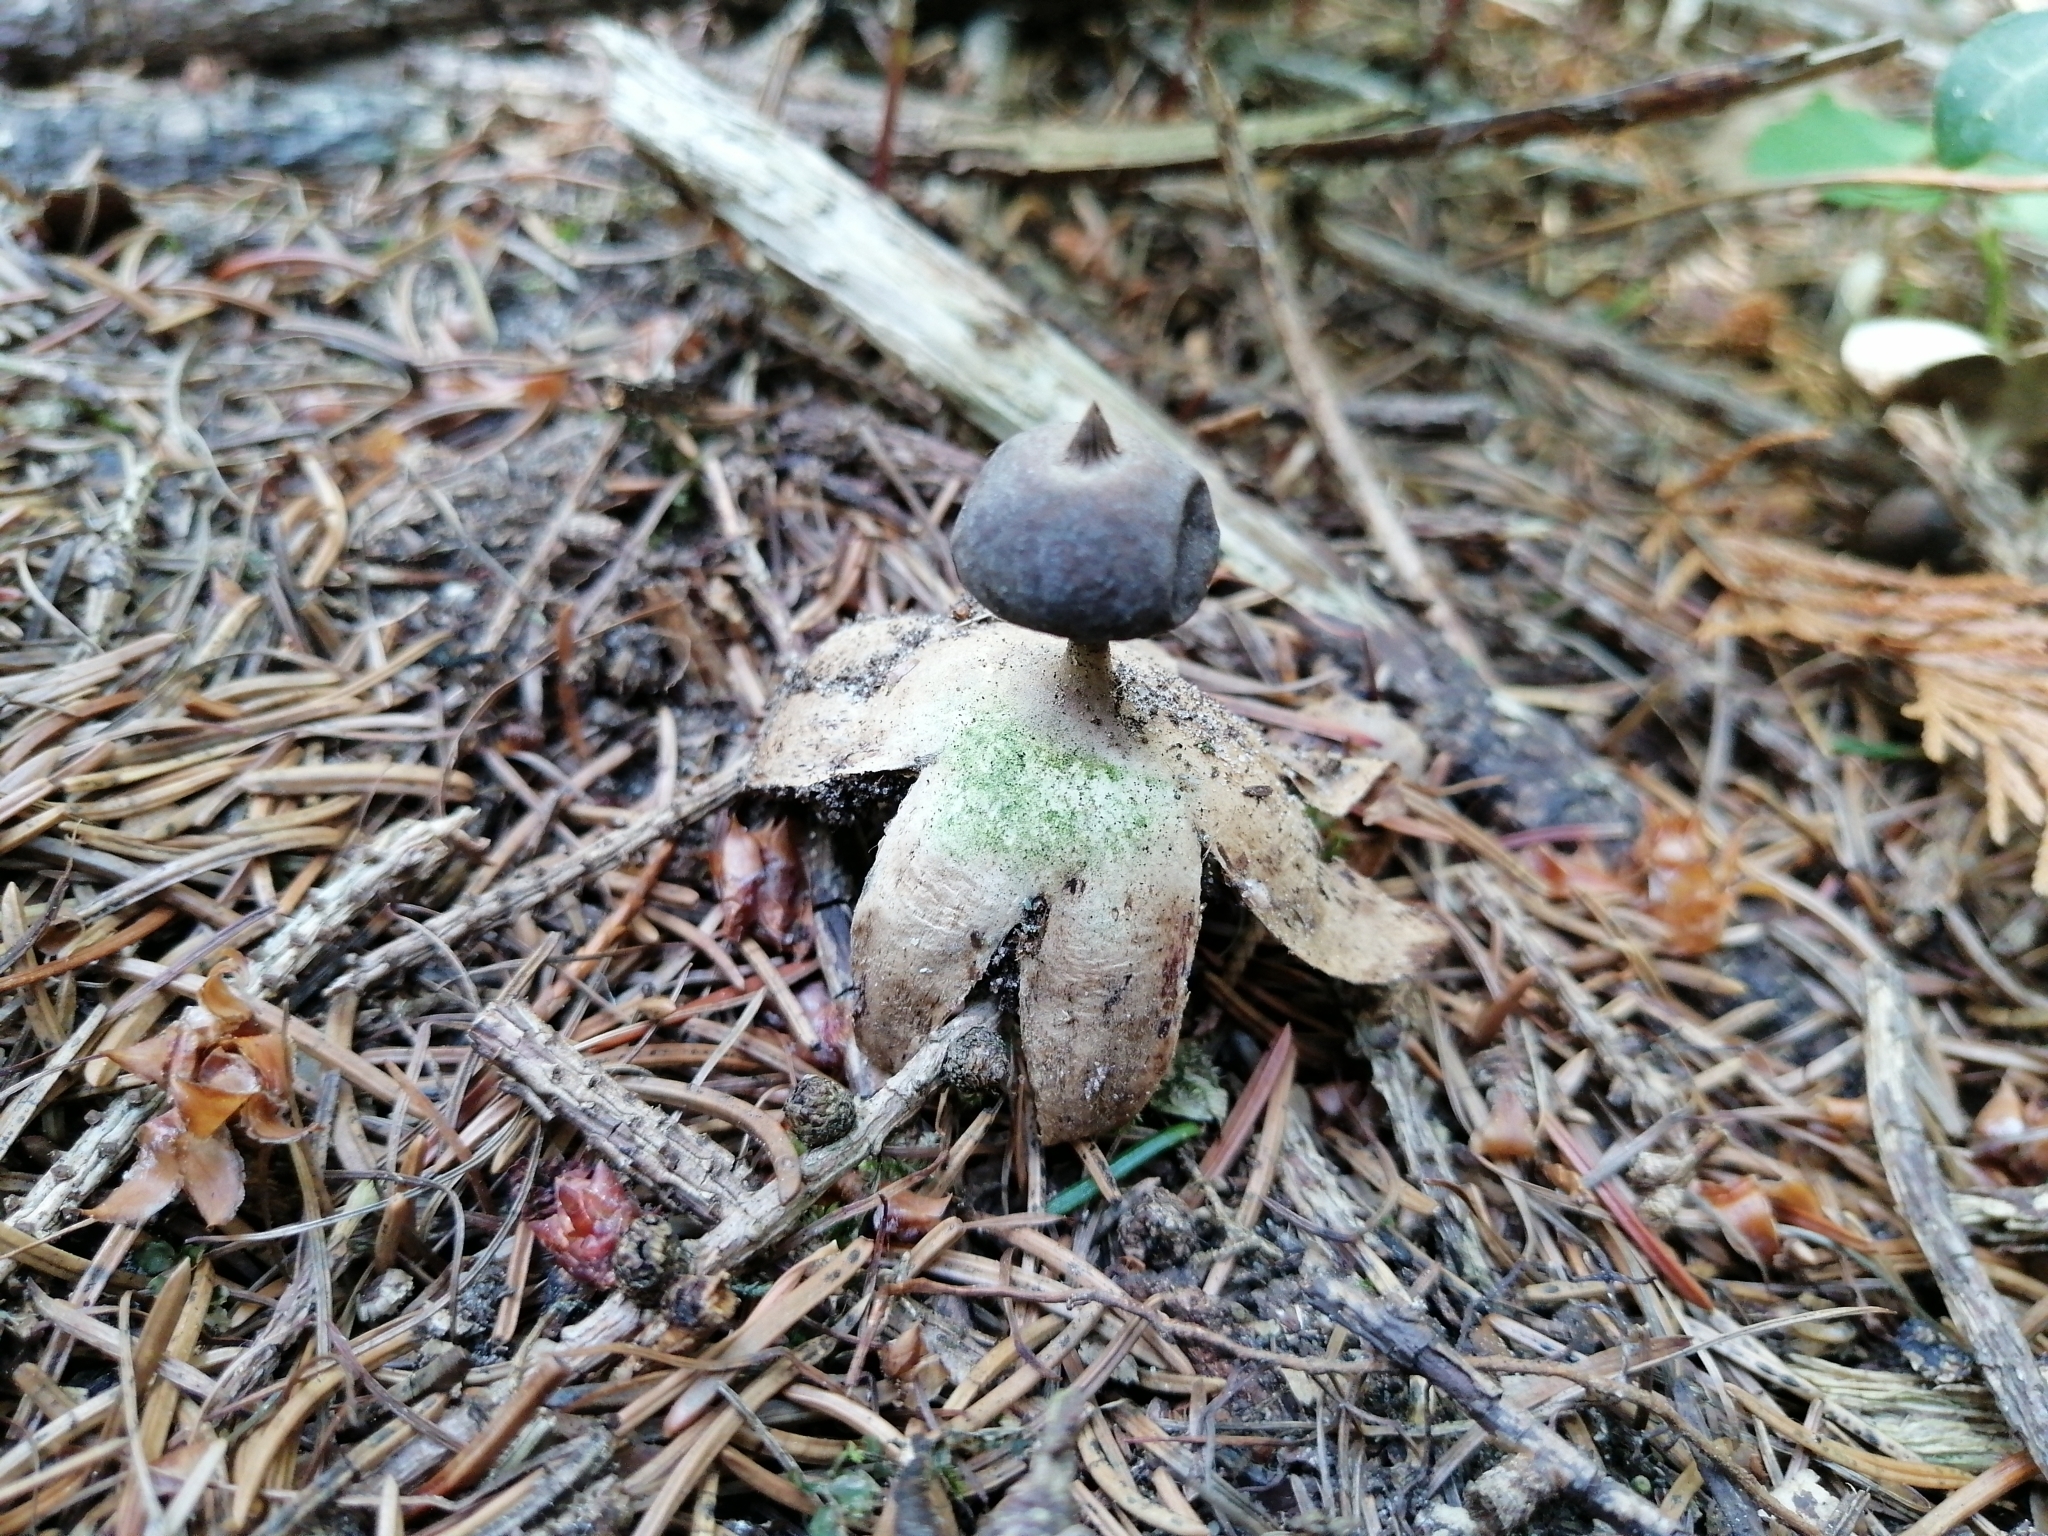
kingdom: Fungi
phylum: Basidiomycota
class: Agaricomycetes
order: Geastrales
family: Geastraceae
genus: Geastrum
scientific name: Geastrum pectinatum
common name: Beaked earthstar
